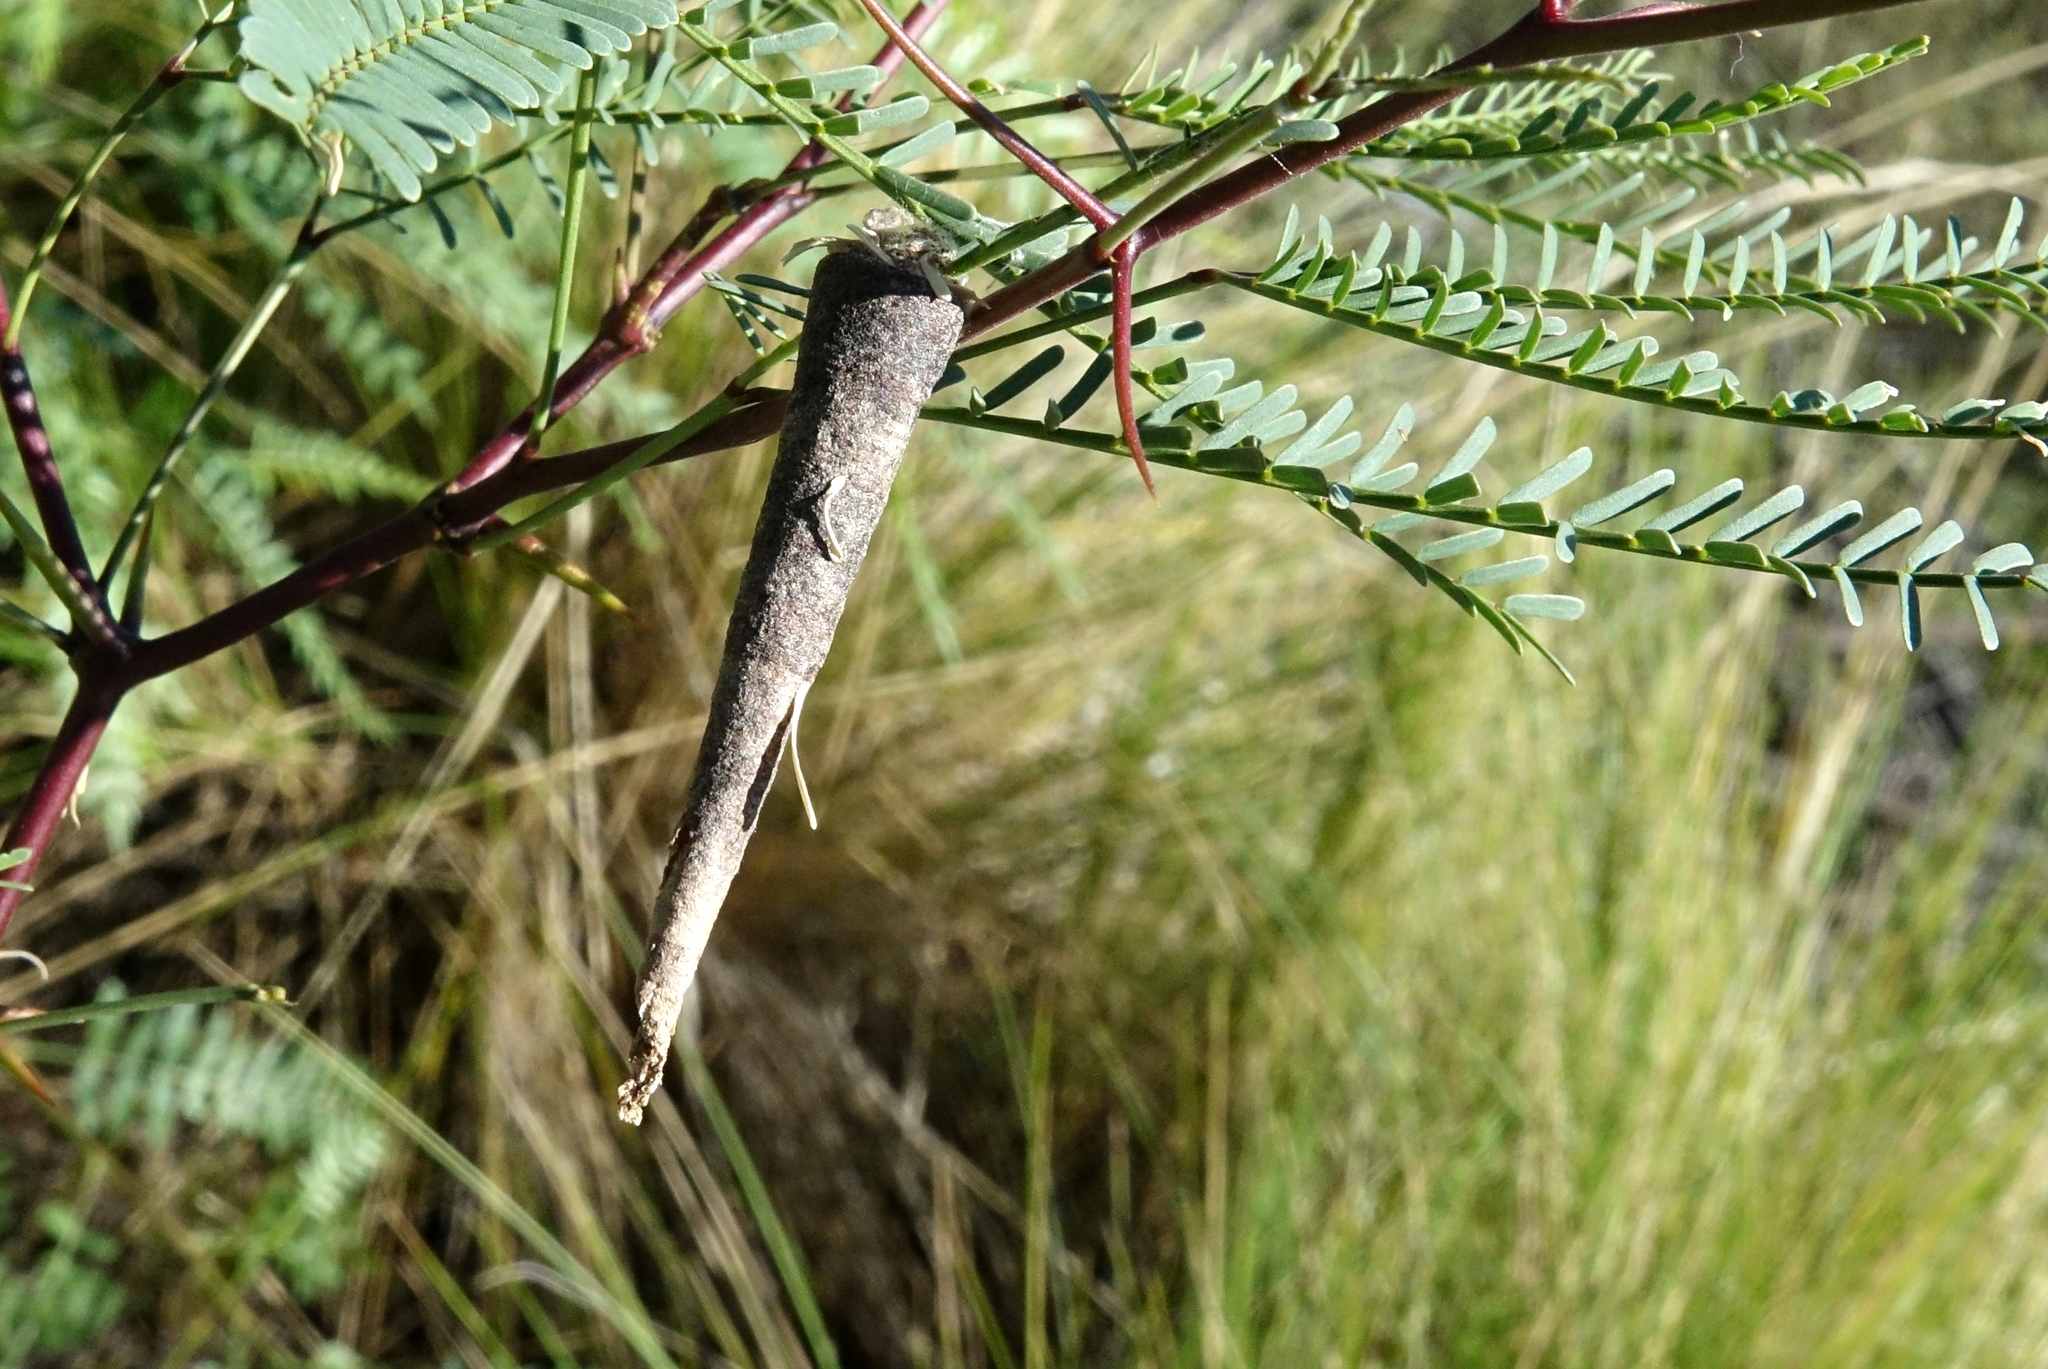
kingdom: Animalia
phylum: Arthropoda
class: Insecta
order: Lepidoptera
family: Psychidae
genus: Oiketicus
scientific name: Oiketicus geyeri
